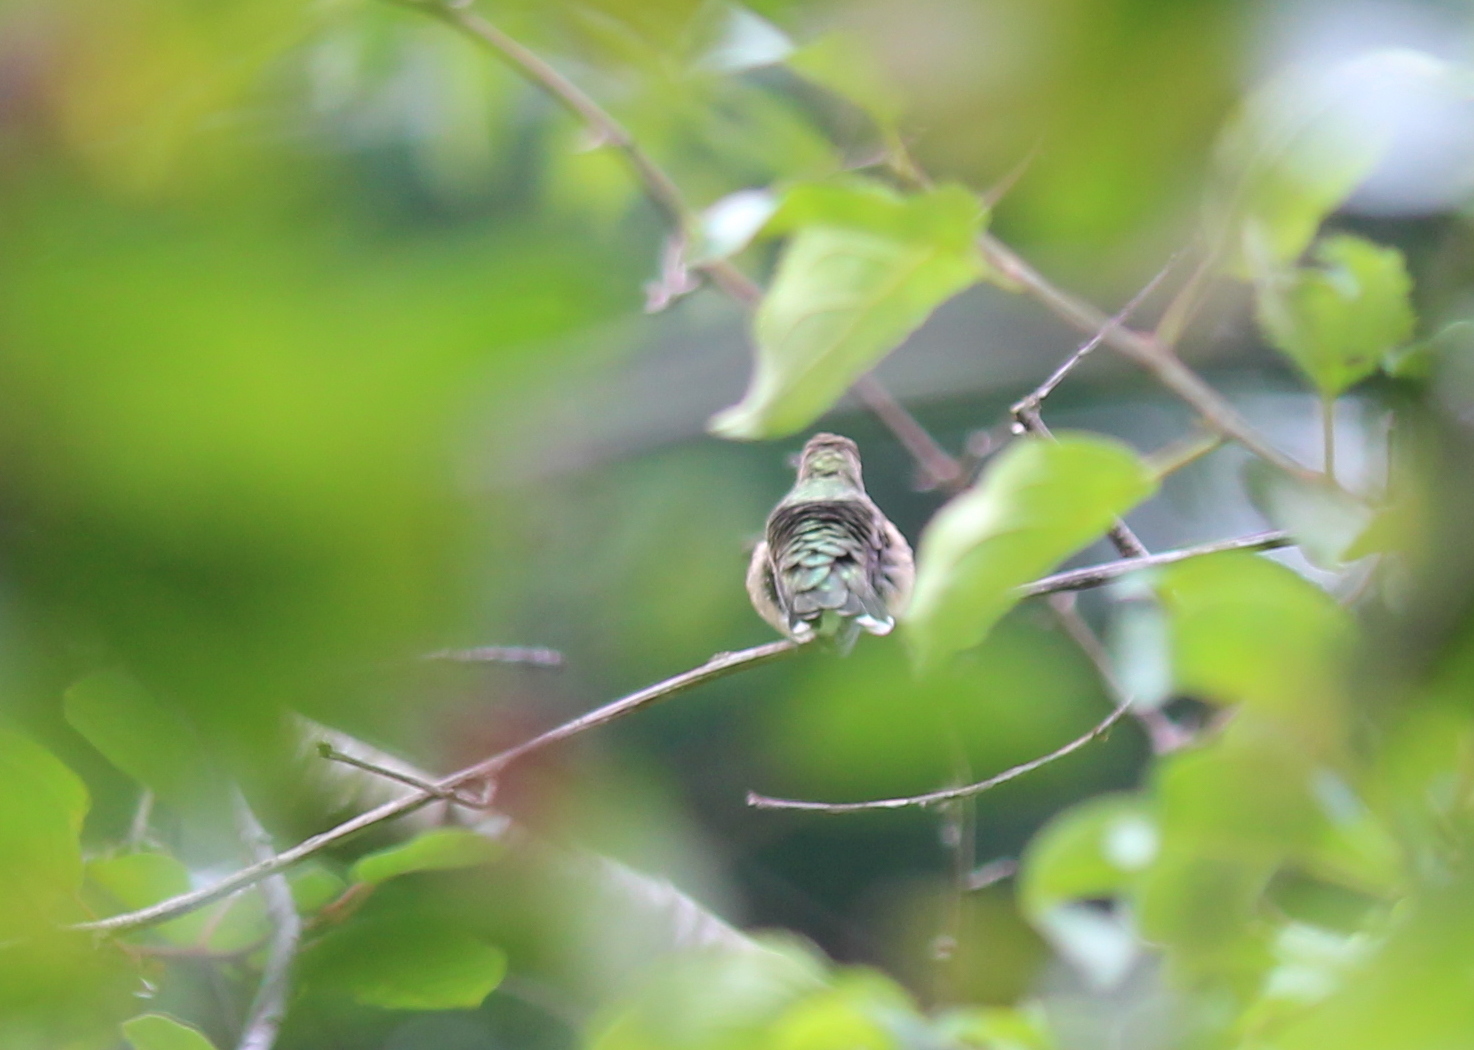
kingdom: Animalia
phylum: Chordata
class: Aves
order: Apodiformes
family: Trochilidae
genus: Archilochus
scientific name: Archilochus colubris
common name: Ruby-throated hummingbird
